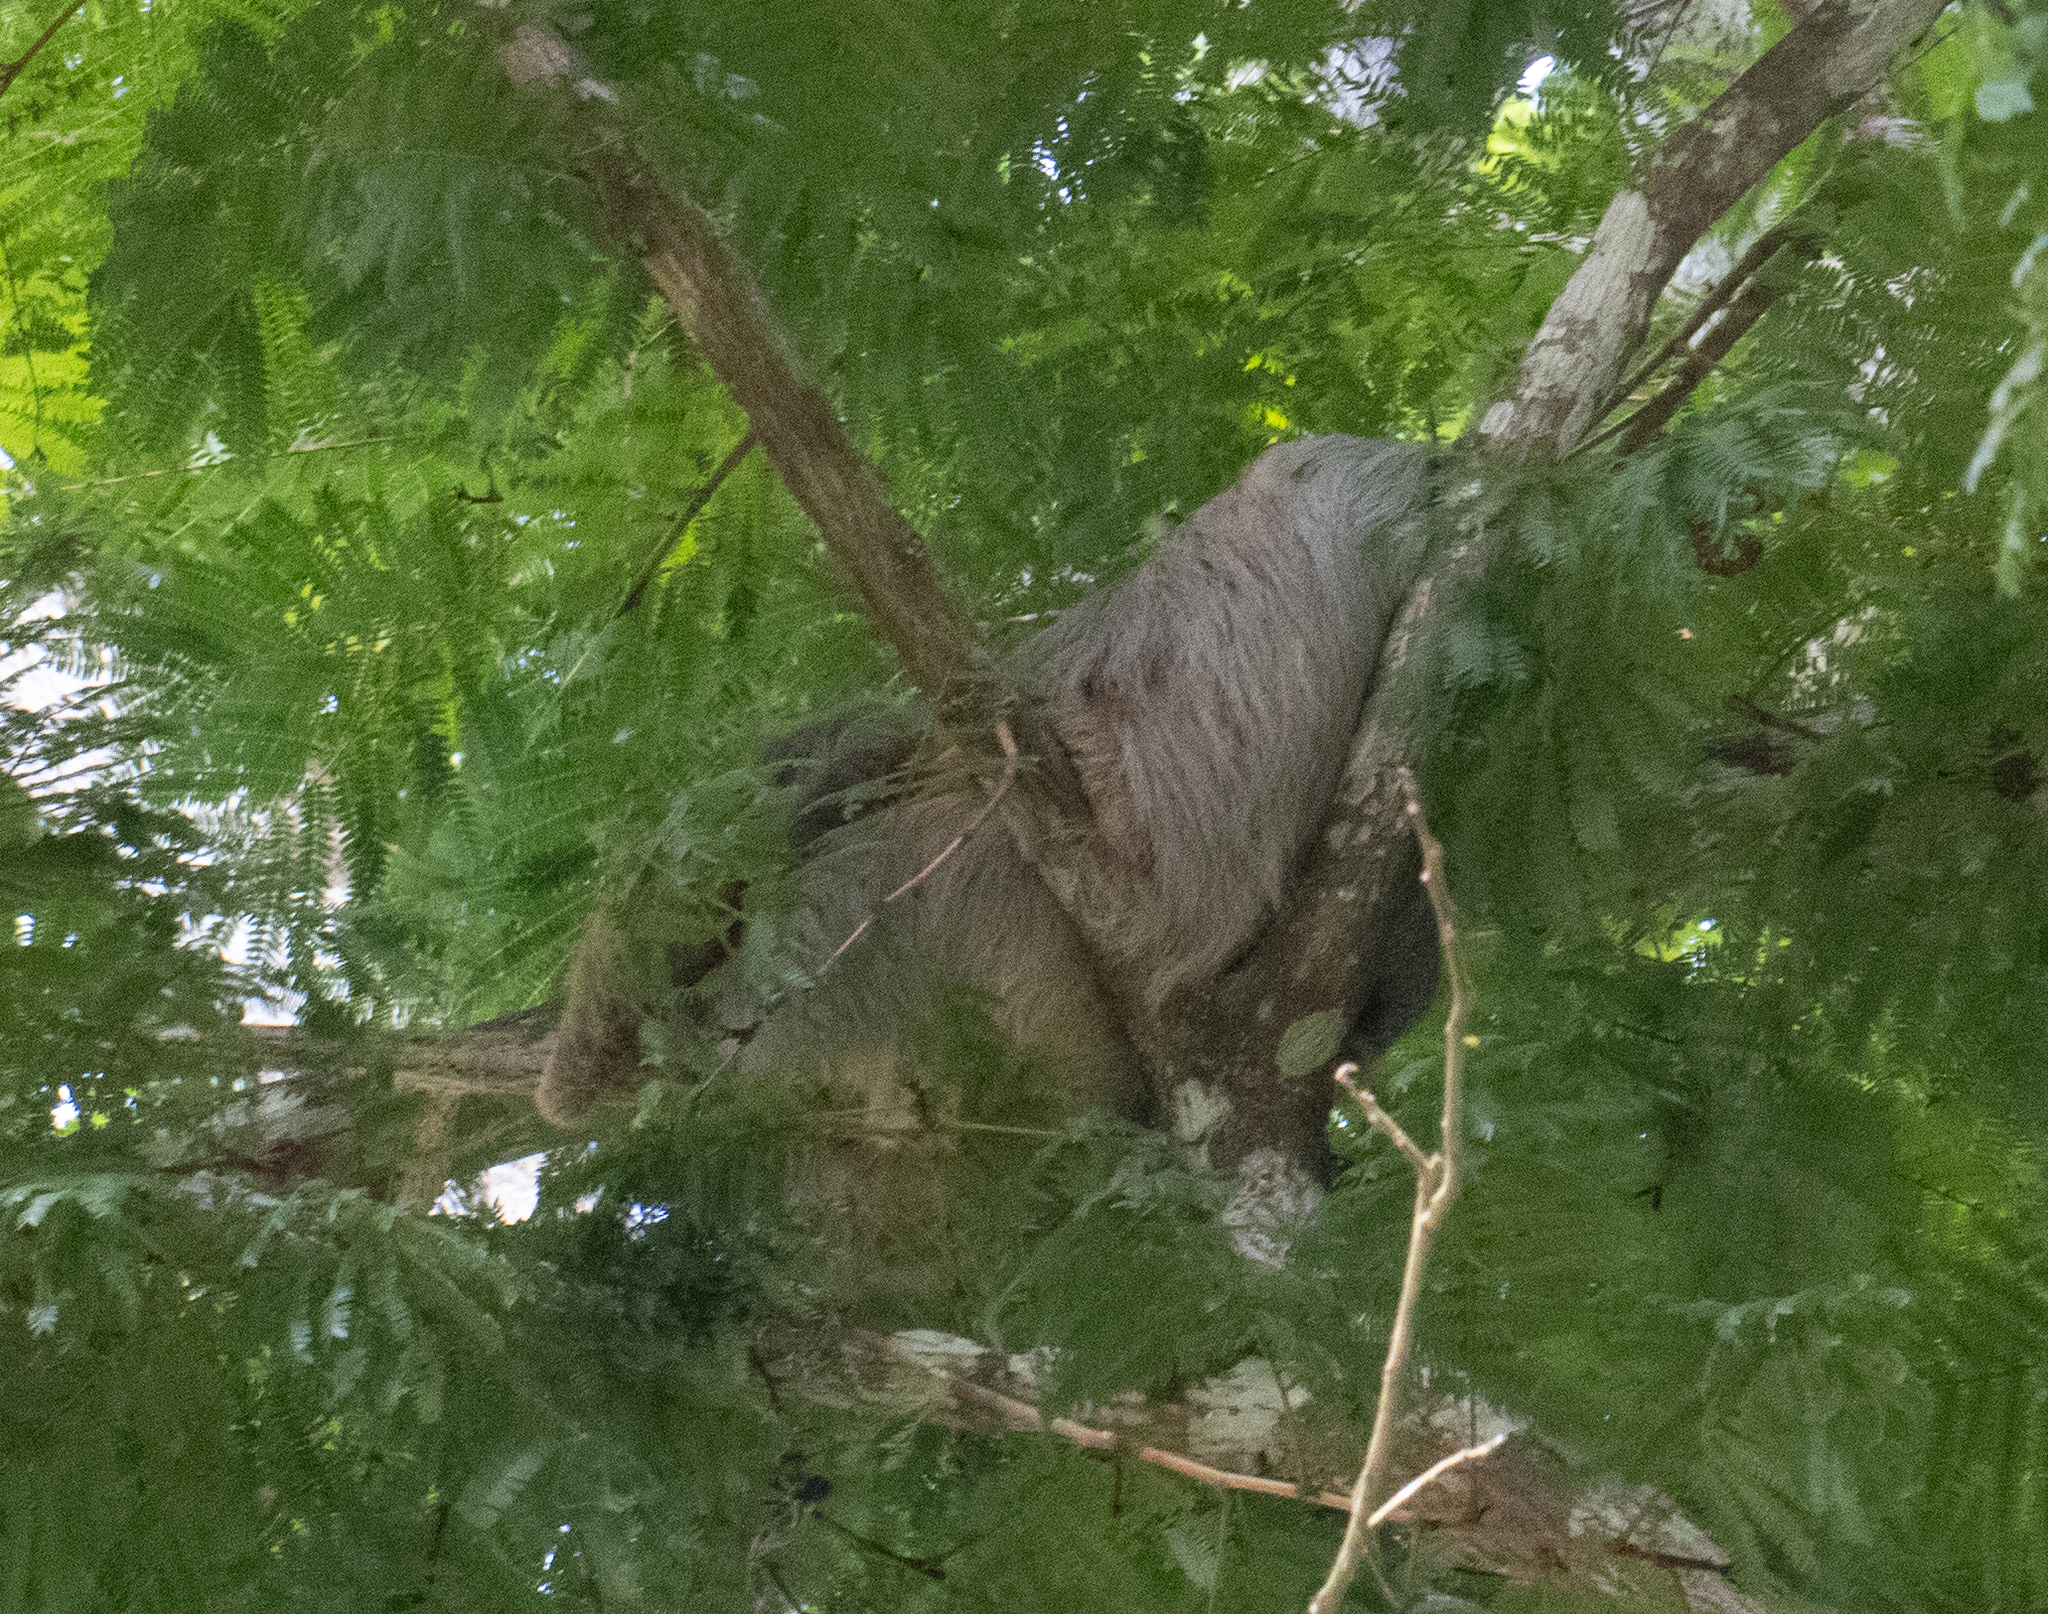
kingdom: Animalia
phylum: Chordata
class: Mammalia
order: Pilosa
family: Megalonychidae
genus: Choloepus
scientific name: Choloepus hoffmanni
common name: Hoffmann's two-toed sloth
